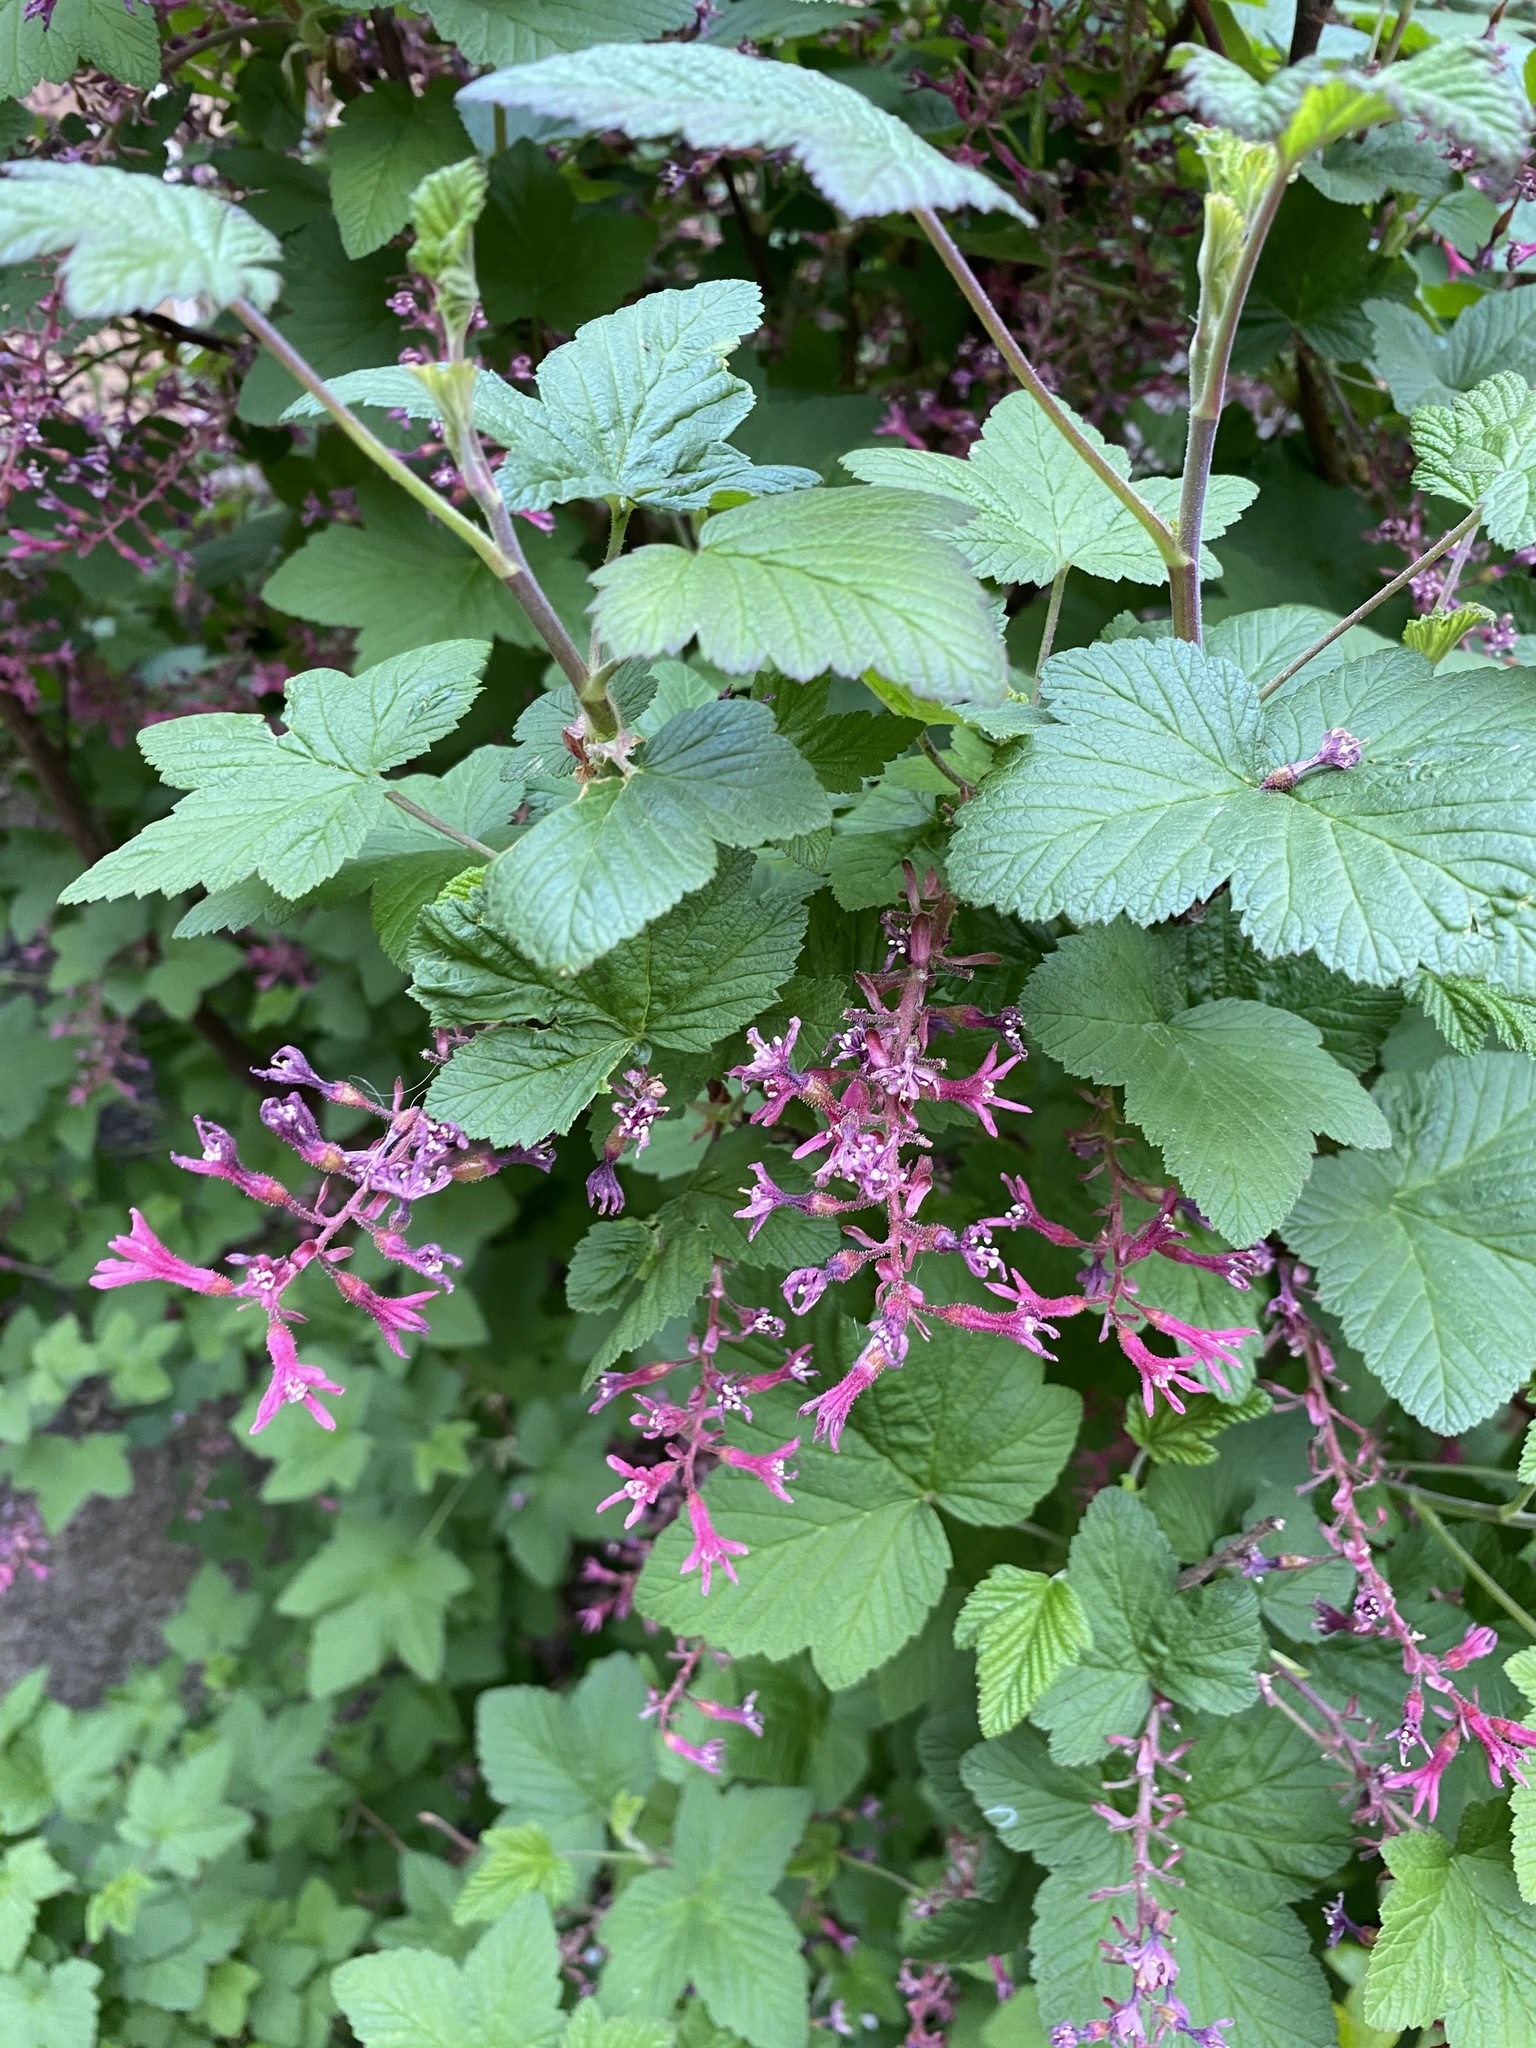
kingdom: Plantae
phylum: Tracheophyta
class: Magnoliopsida
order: Saxifragales
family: Grossulariaceae
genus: Ribes
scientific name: Ribes sanguineum
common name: Flowering currant
